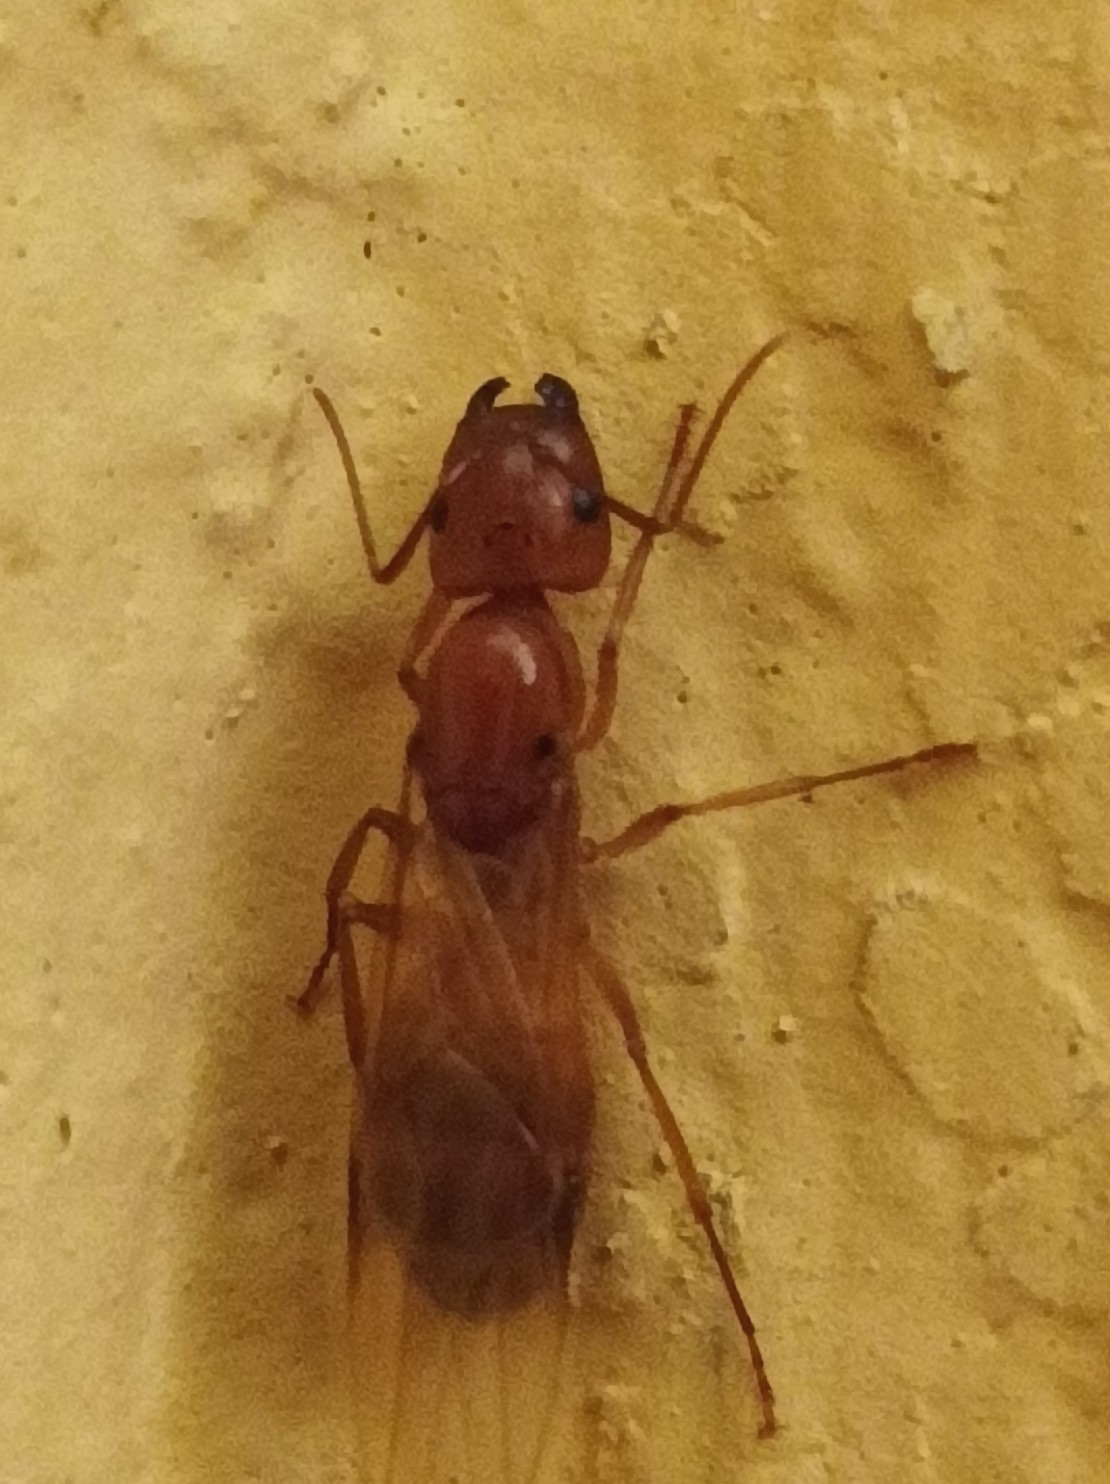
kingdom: Animalia
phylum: Arthropoda
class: Insecta
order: Hymenoptera
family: Formicidae
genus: Camponotus
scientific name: Camponotus chloroticus
